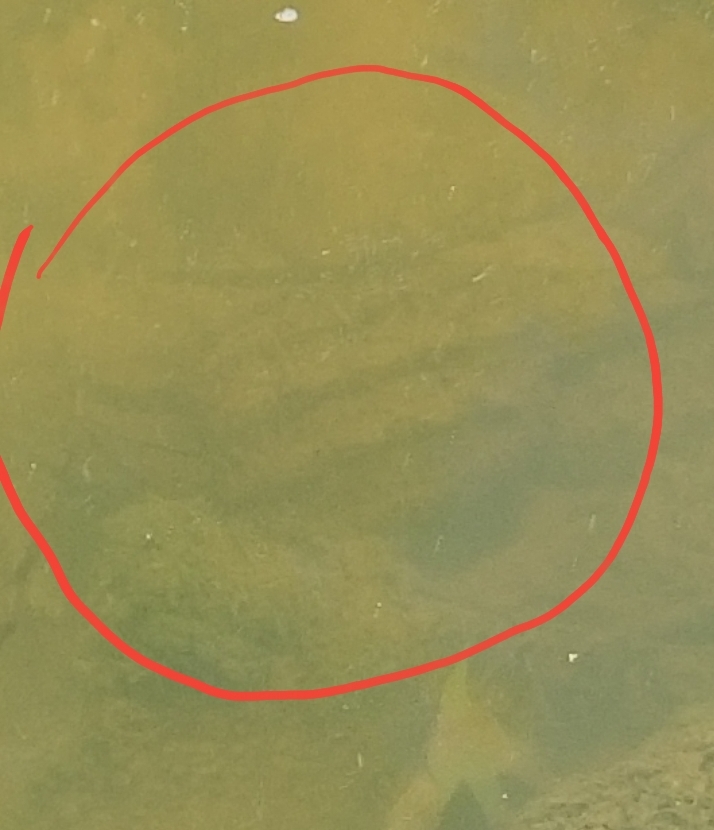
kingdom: Animalia
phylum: Chordata
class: Testudines
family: Chelydridae
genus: Macrochelys
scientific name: Macrochelys temminckii
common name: Alligator snapping turtle
